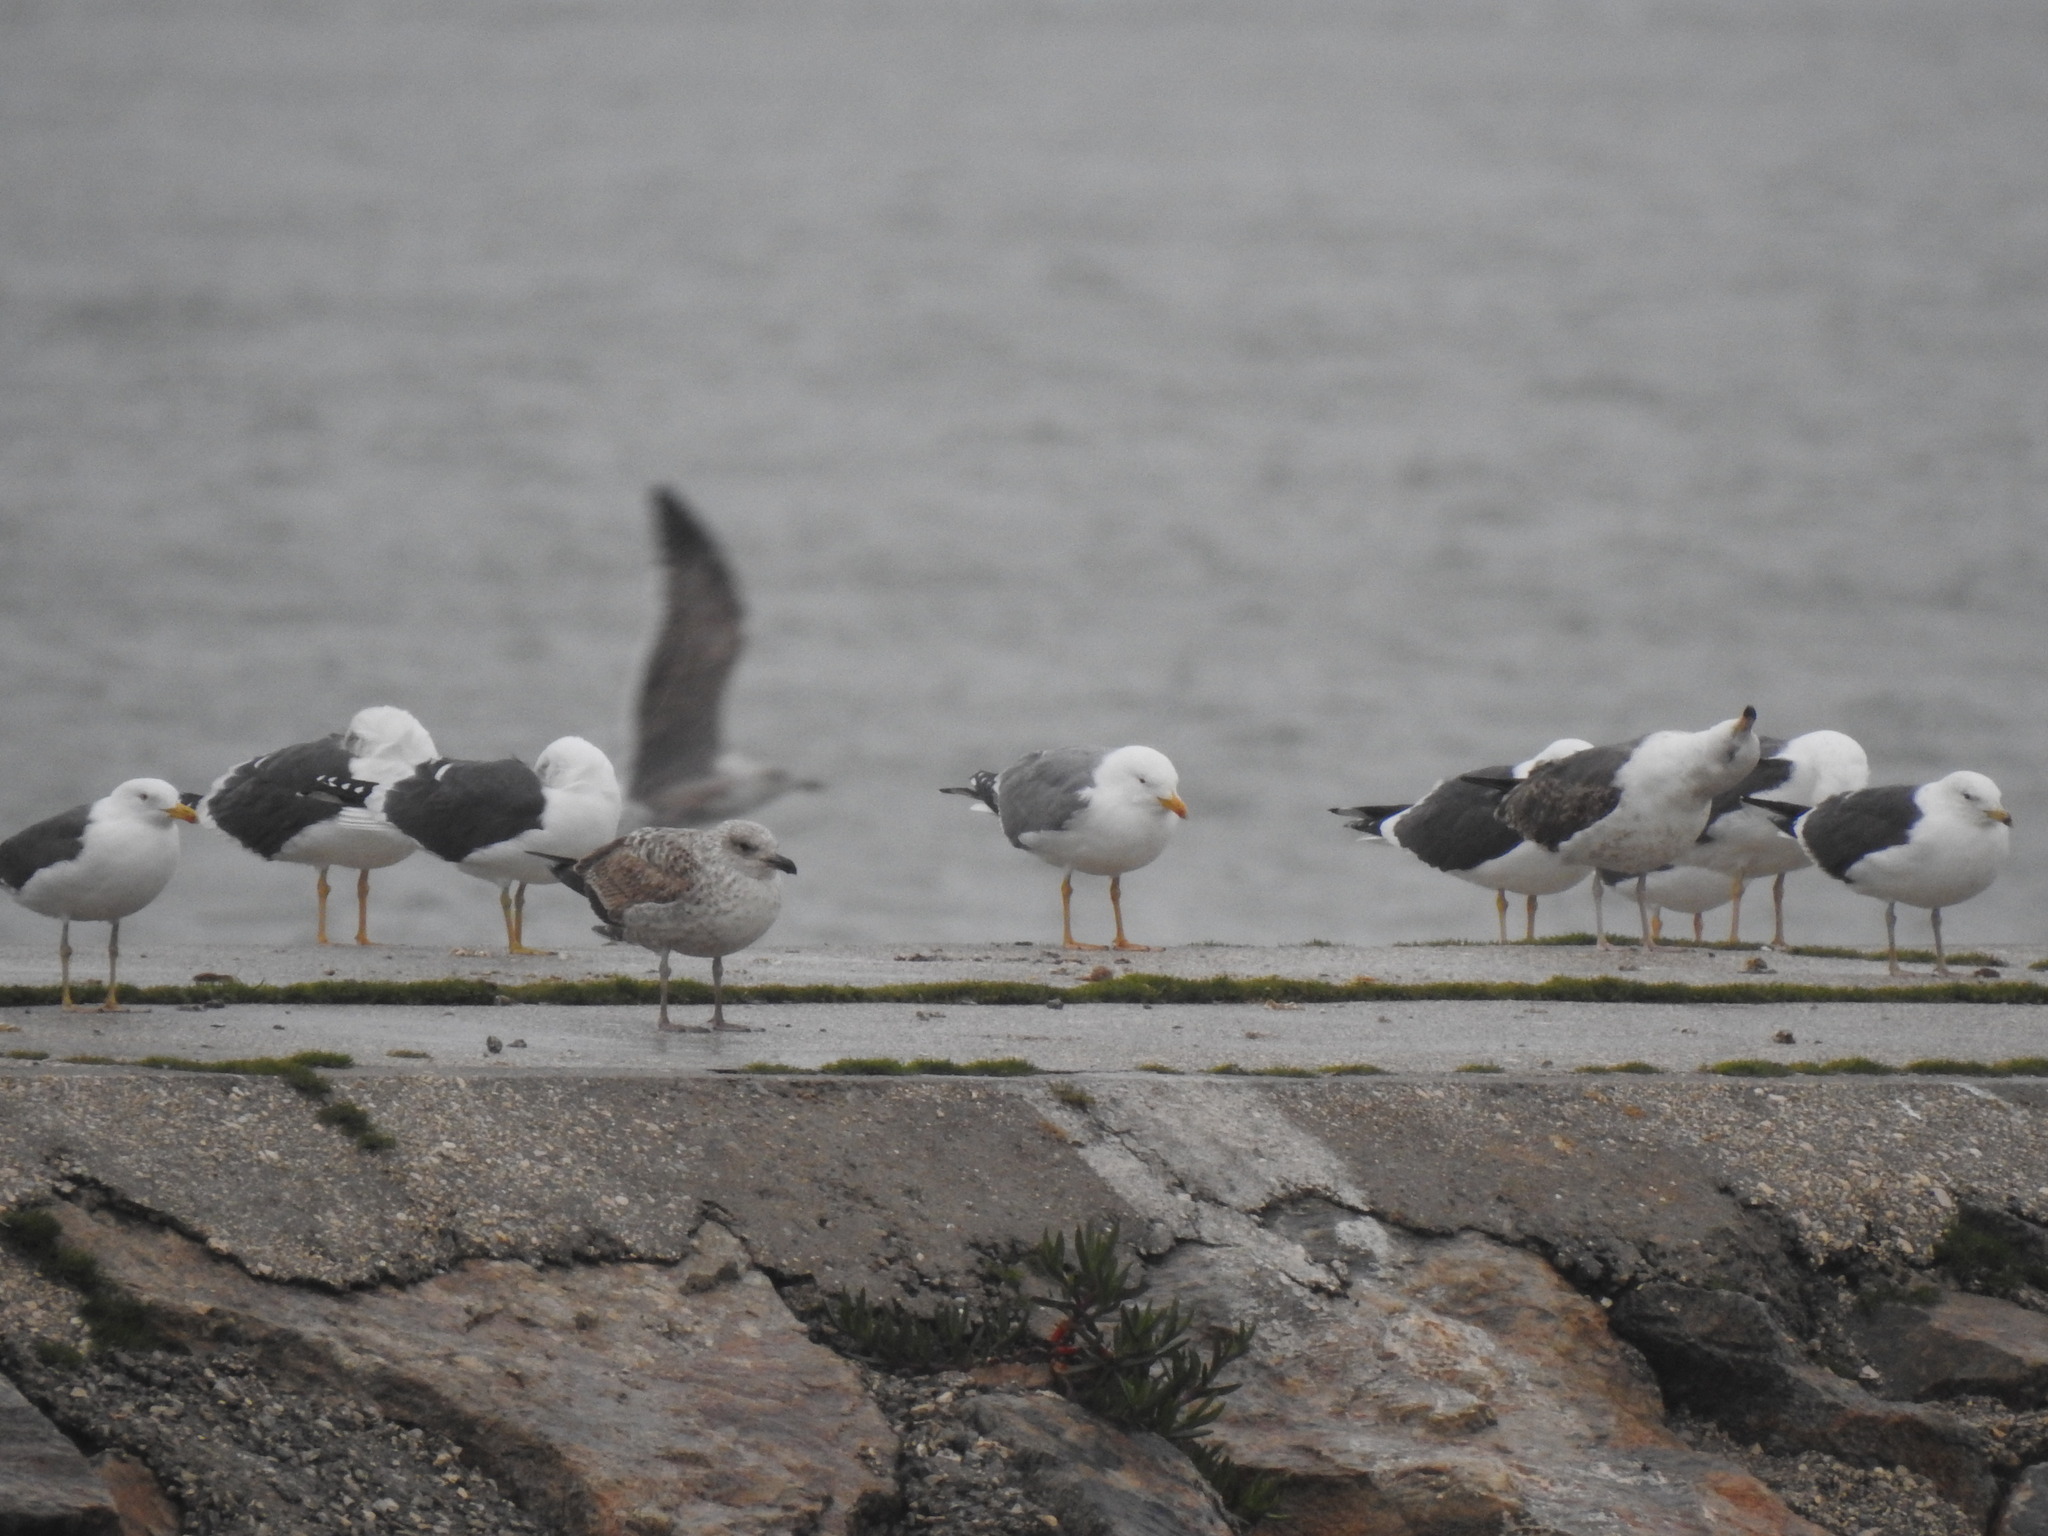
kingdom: Animalia
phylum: Chordata
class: Aves
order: Charadriiformes
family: Laridae
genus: Larus
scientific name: Larus michahellis
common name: Yellow-legged gull
